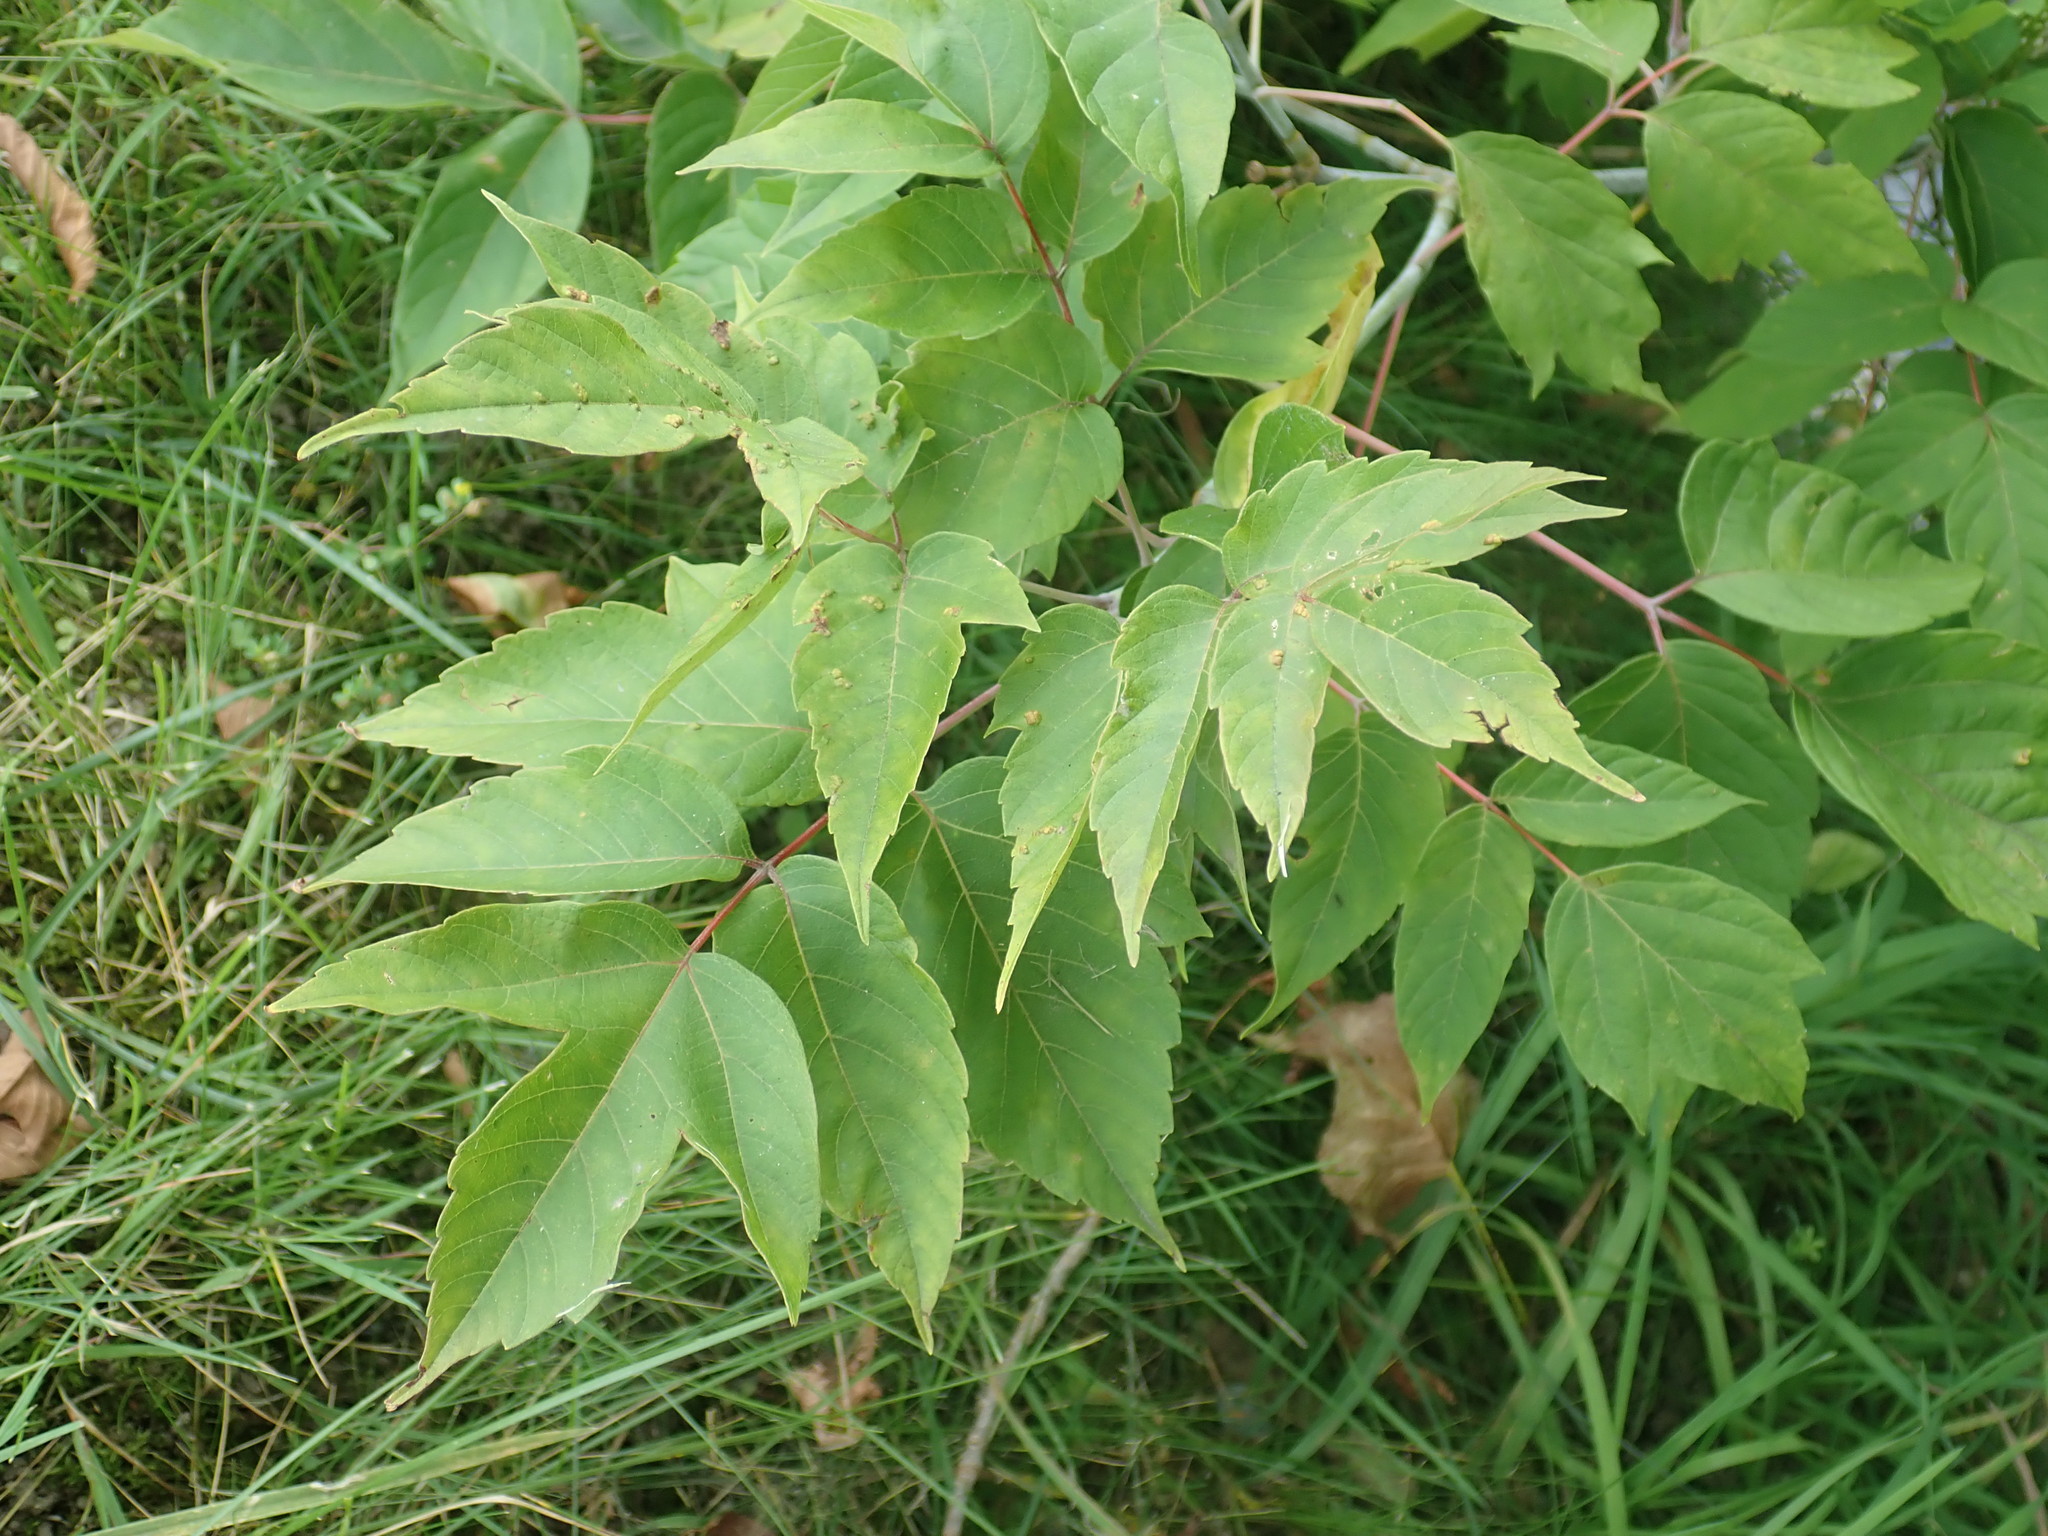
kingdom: Plantae
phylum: Tracheophyta
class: Magnoliopsida
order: Sapindales
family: Sapindaceae
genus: Acer
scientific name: Acer negundo
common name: Ashleaf maple
